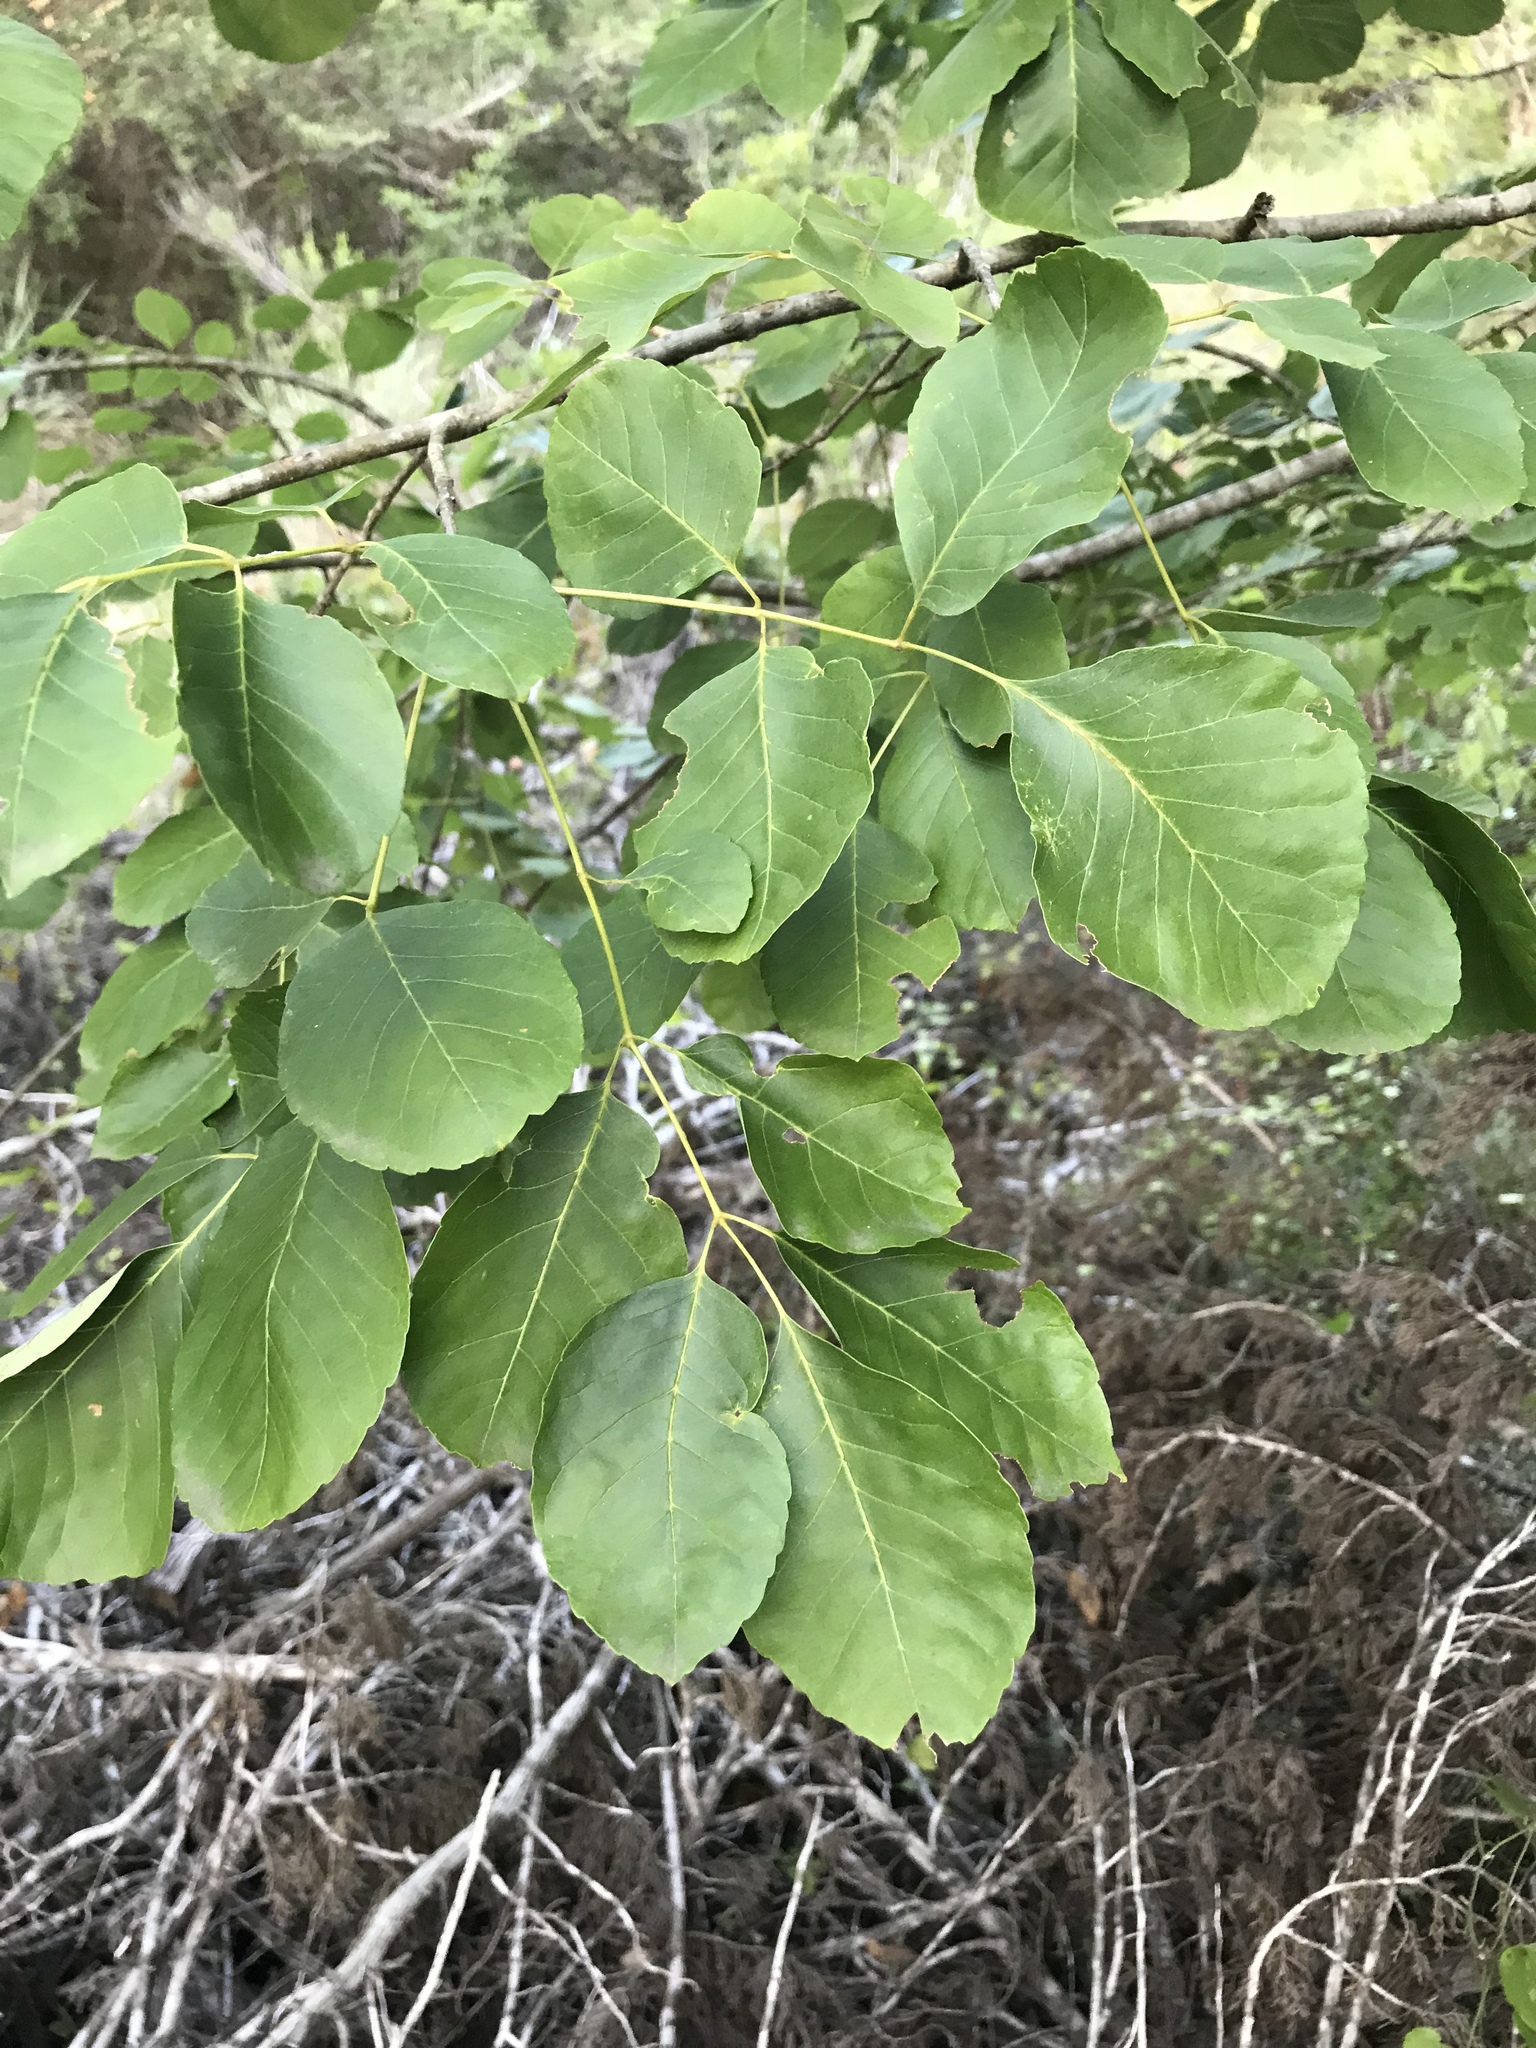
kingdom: Plantae
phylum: Tracheophyta
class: Magnoliopsida
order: Lamiales
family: Oleaceae
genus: Fraxinus
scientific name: Fraxinus albicans
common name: Texas ash
